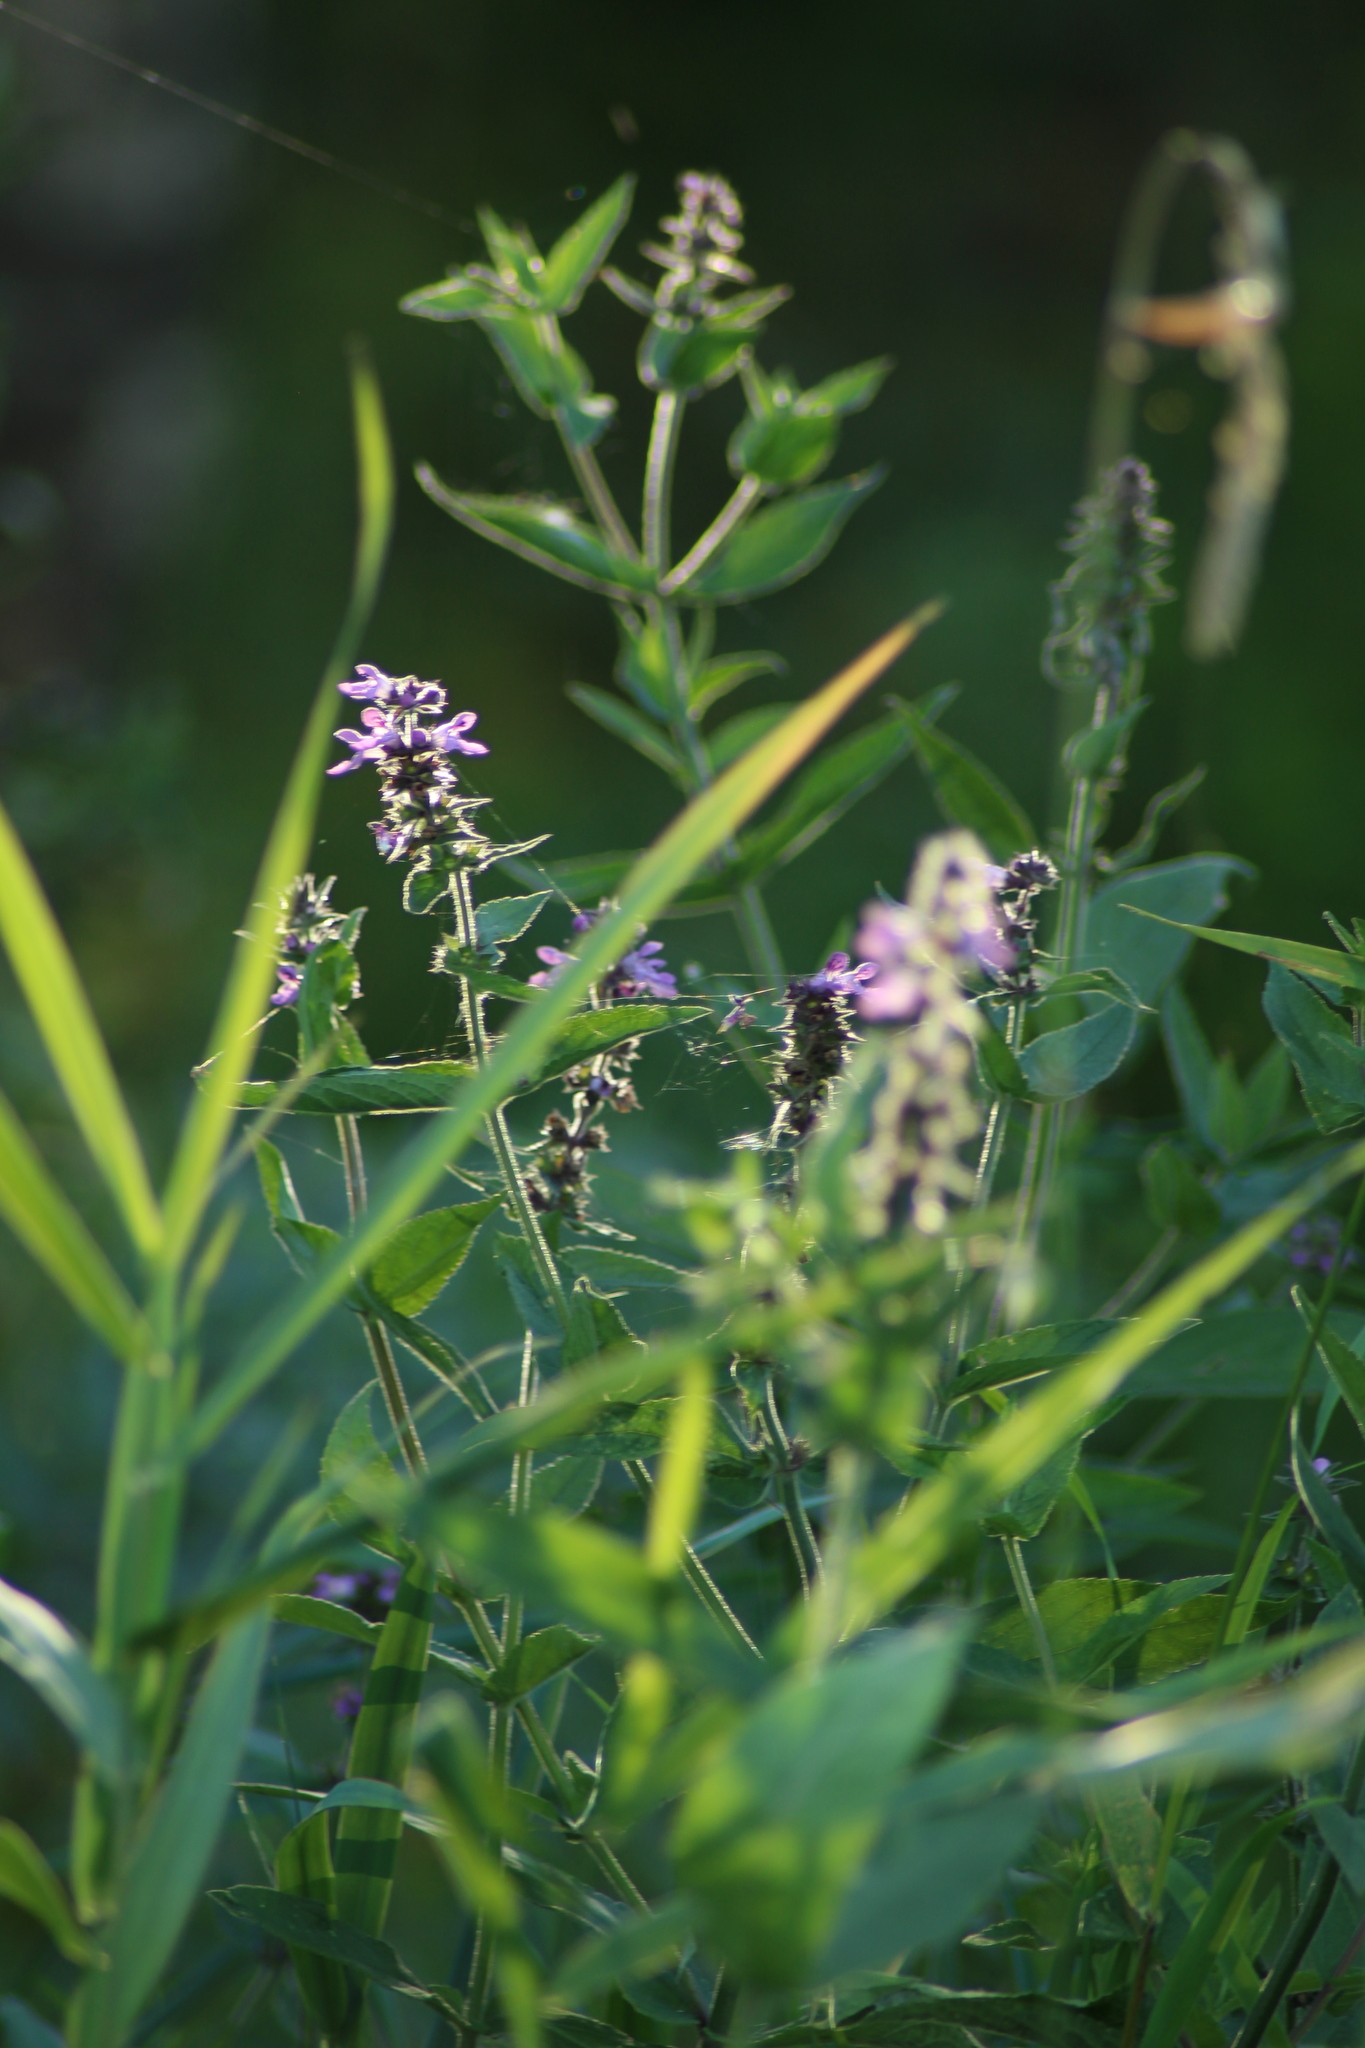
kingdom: Plantae
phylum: Tracheophyta
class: Magnoliopsida
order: Lamiales
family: Lamiaceae
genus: Stachys
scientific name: Stachys palustris
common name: Marsh woundwort
